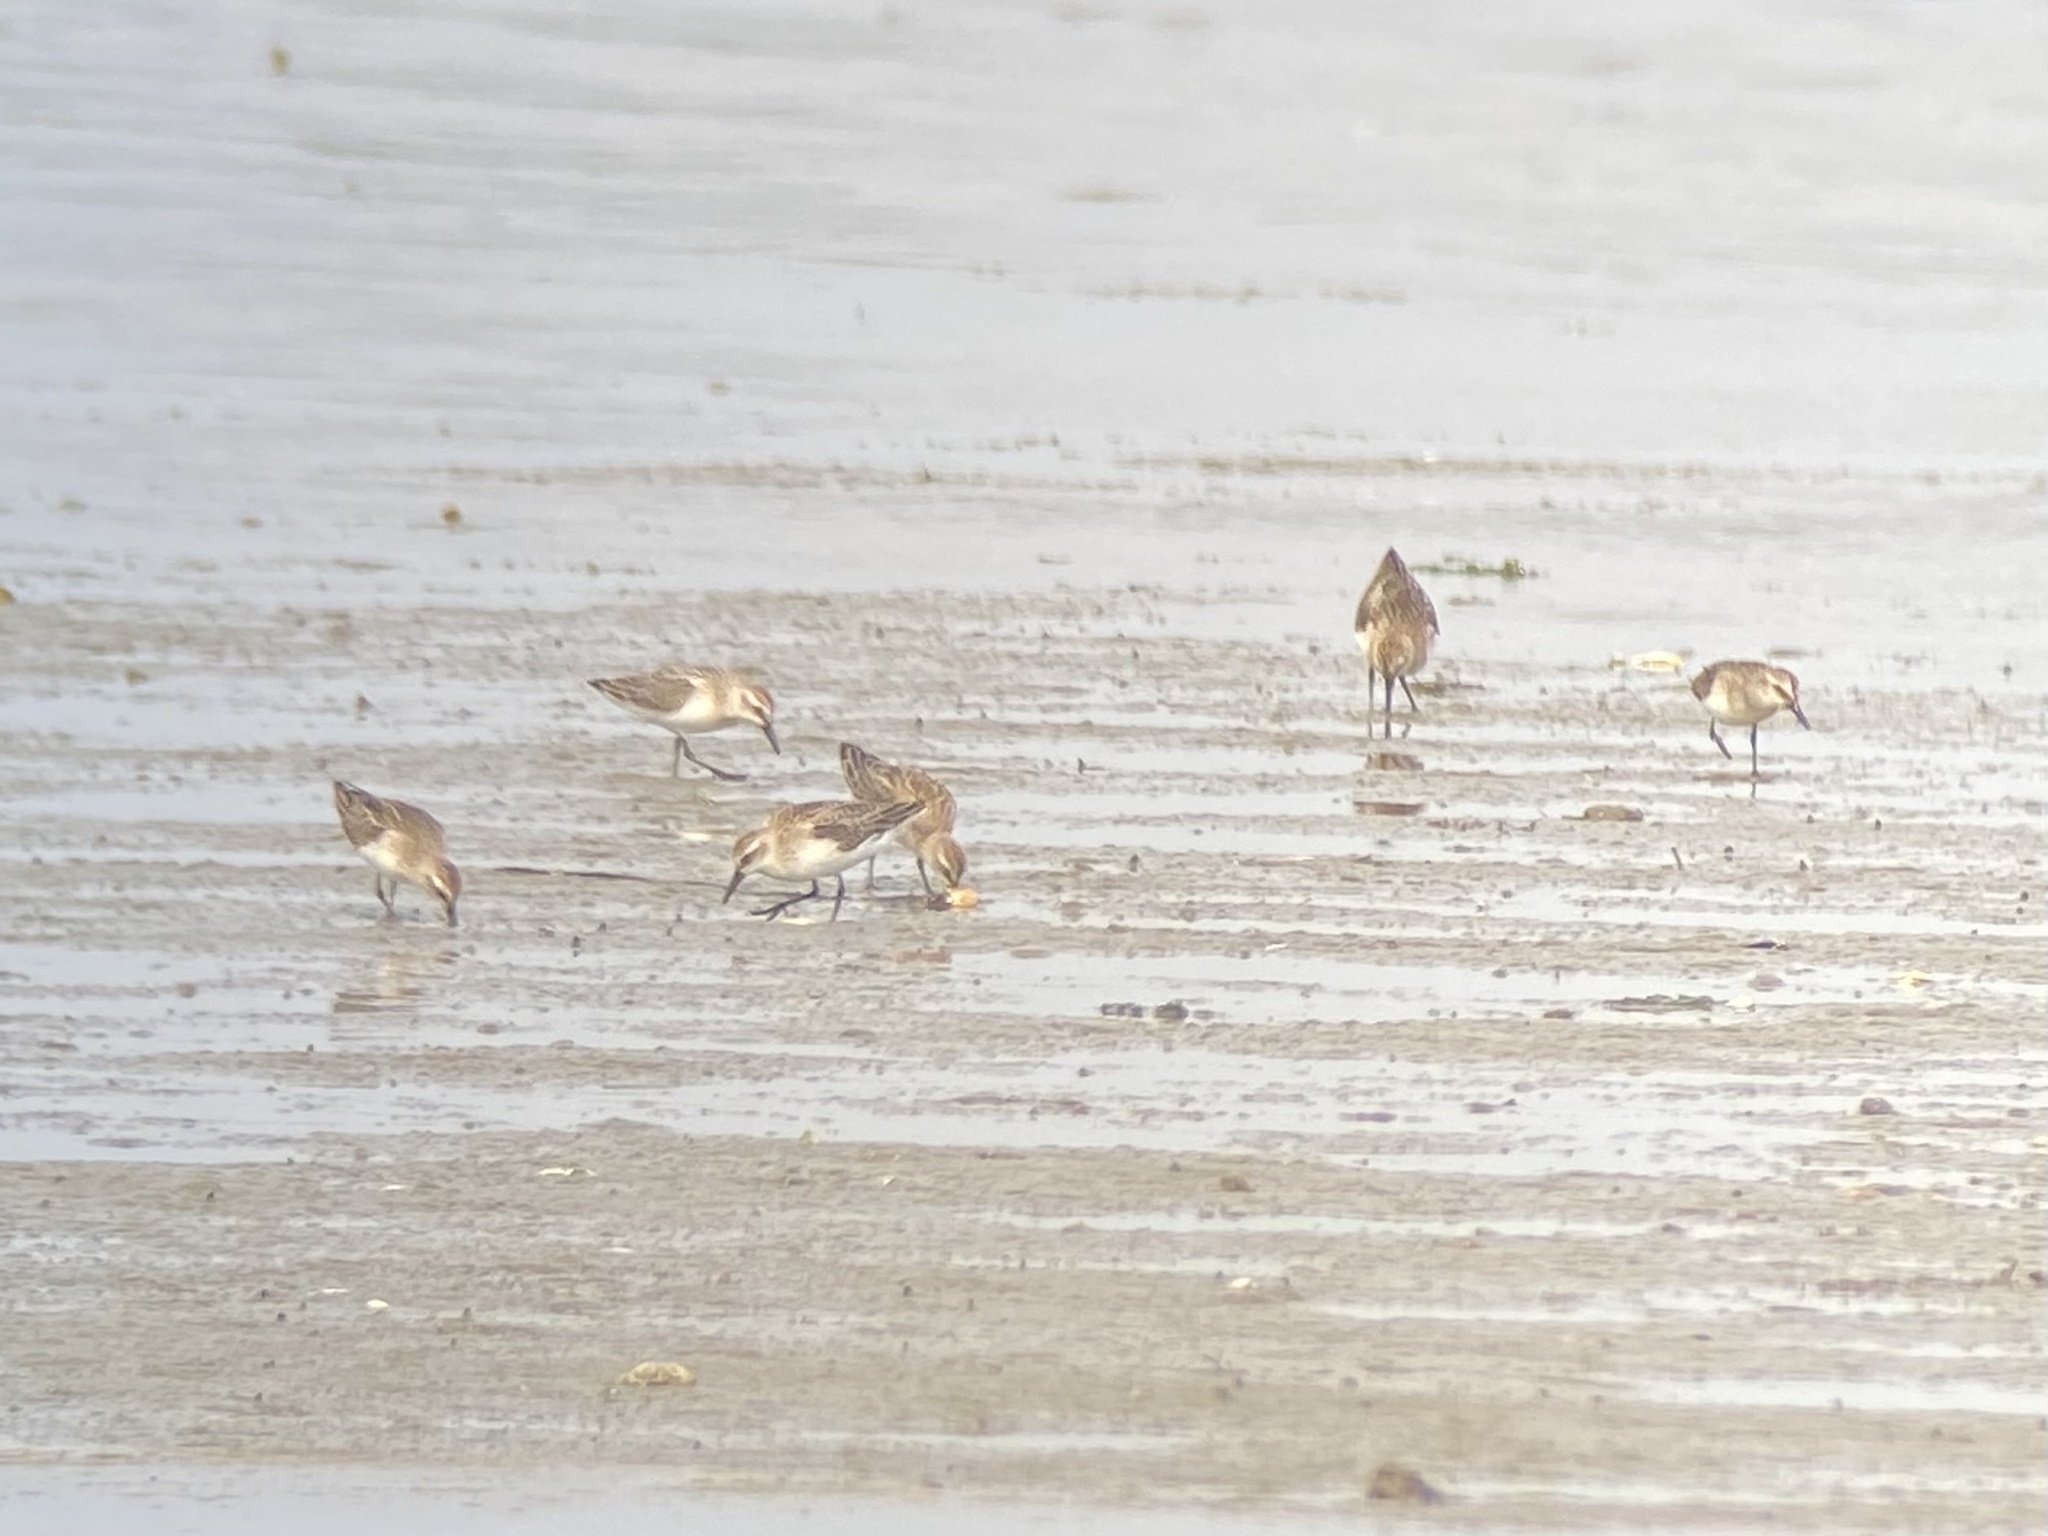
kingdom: Animalia
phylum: Chordata
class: Aves
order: Charadriiformes
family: Scolopacidae
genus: Calidris
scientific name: Calidris pusilla
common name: Semipalmated sandpiper
